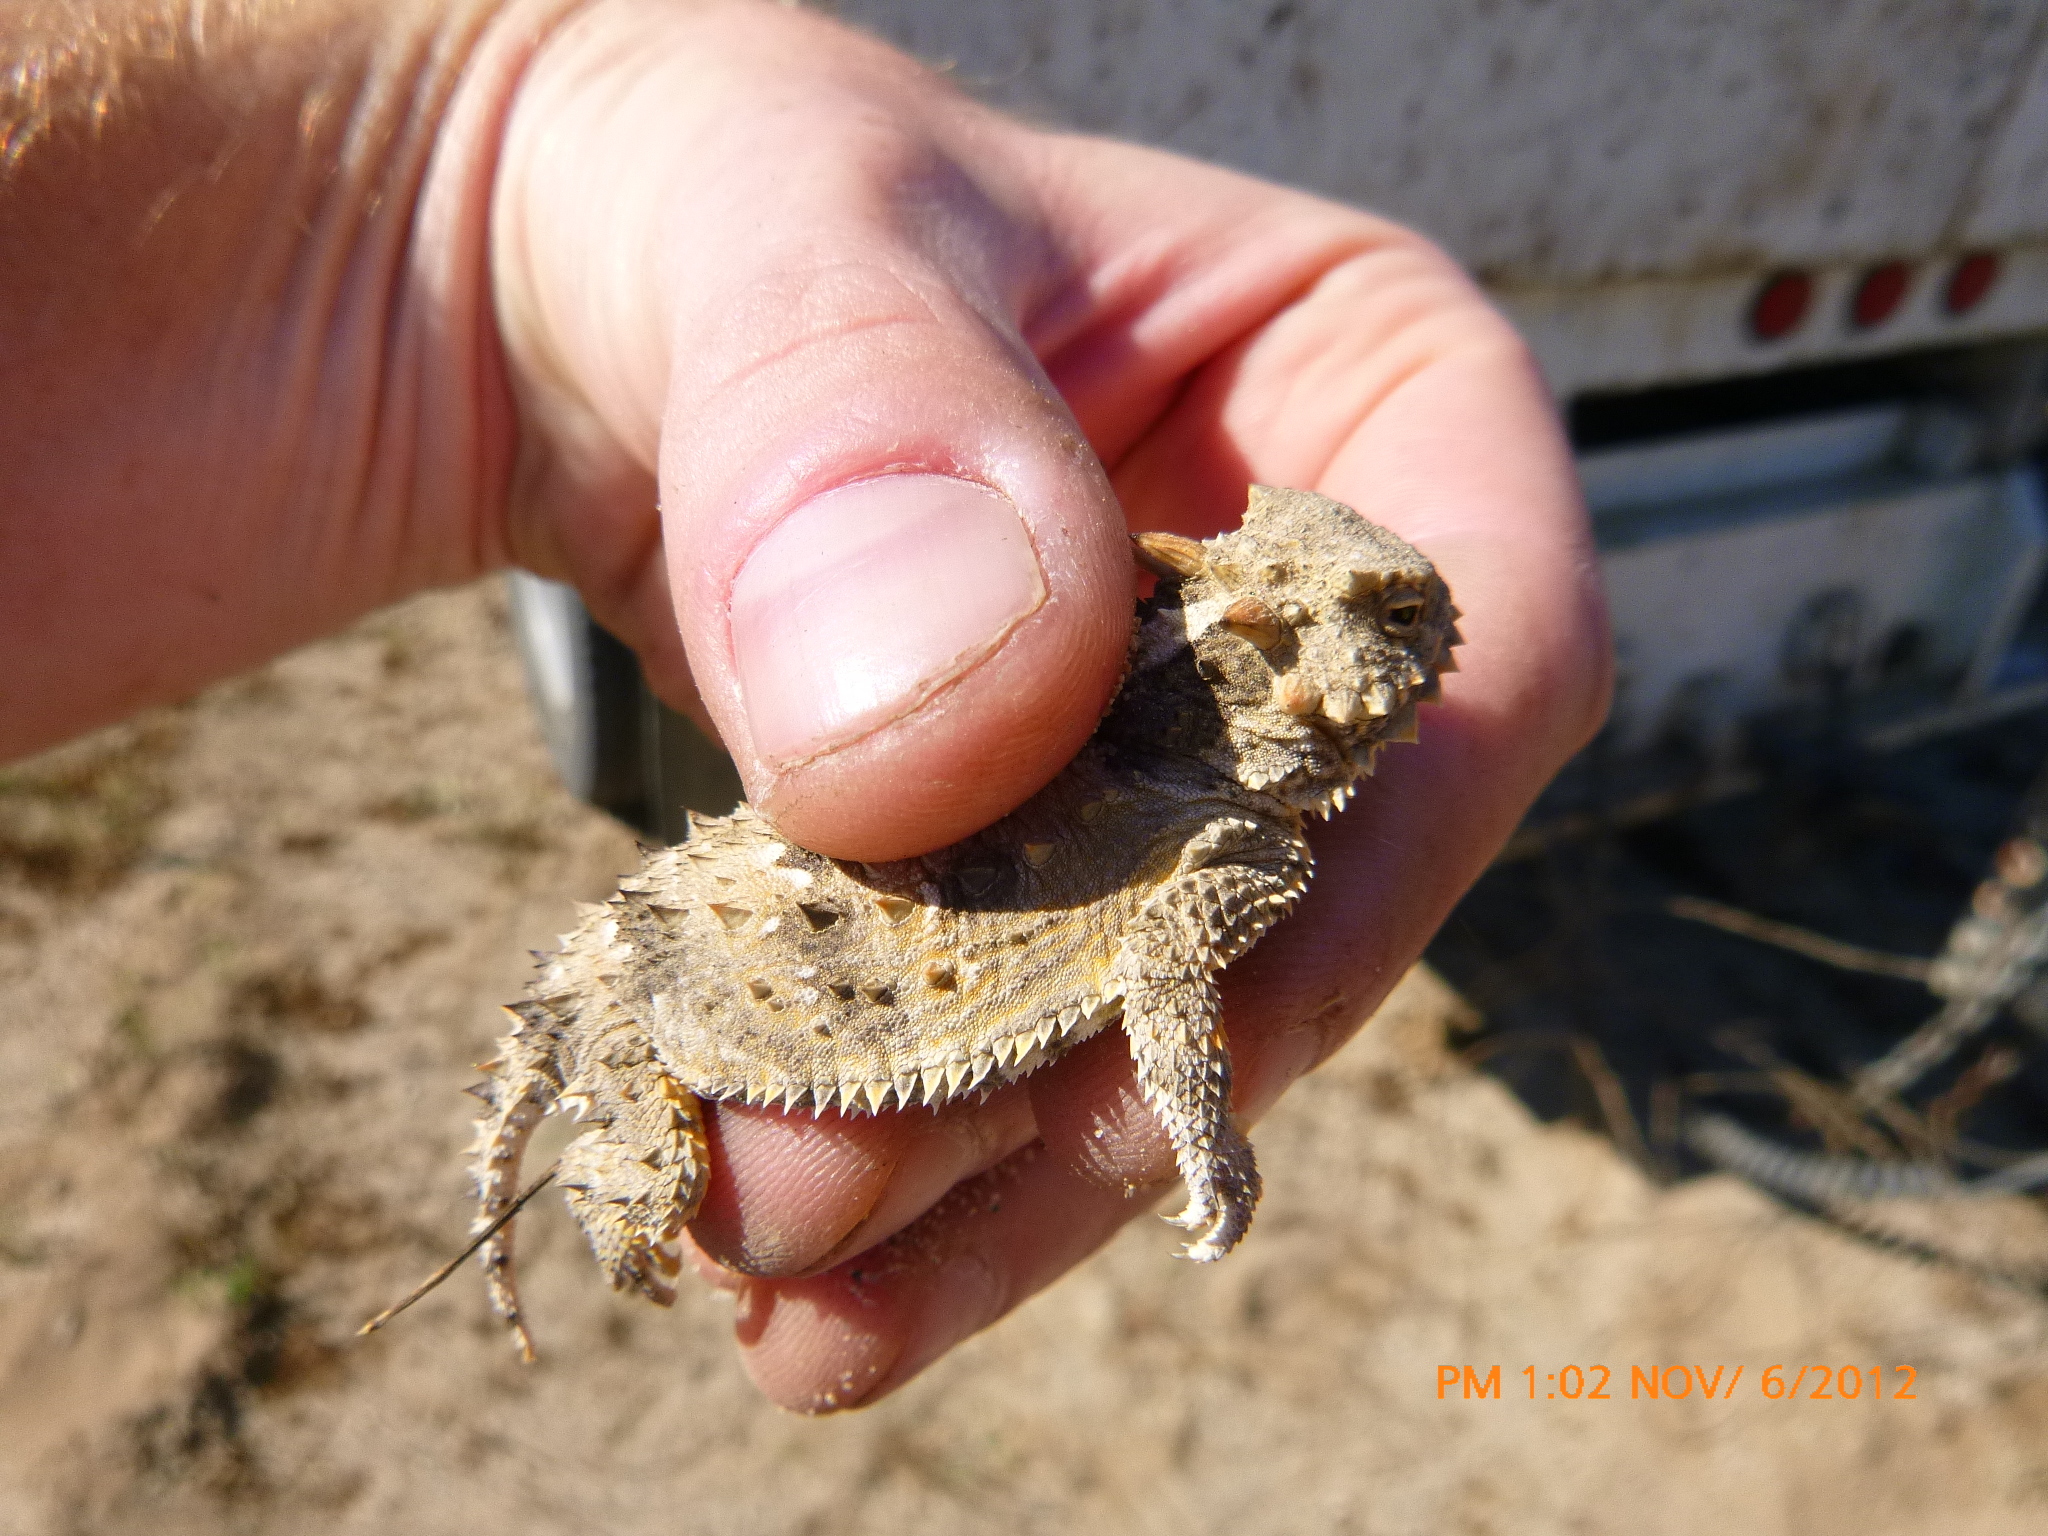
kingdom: Animalia
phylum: Chordata
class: Squamata
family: Phrynosomatidae
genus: Phrynosoma
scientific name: Phrynosoma blainvillii
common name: San diego horned lizard
